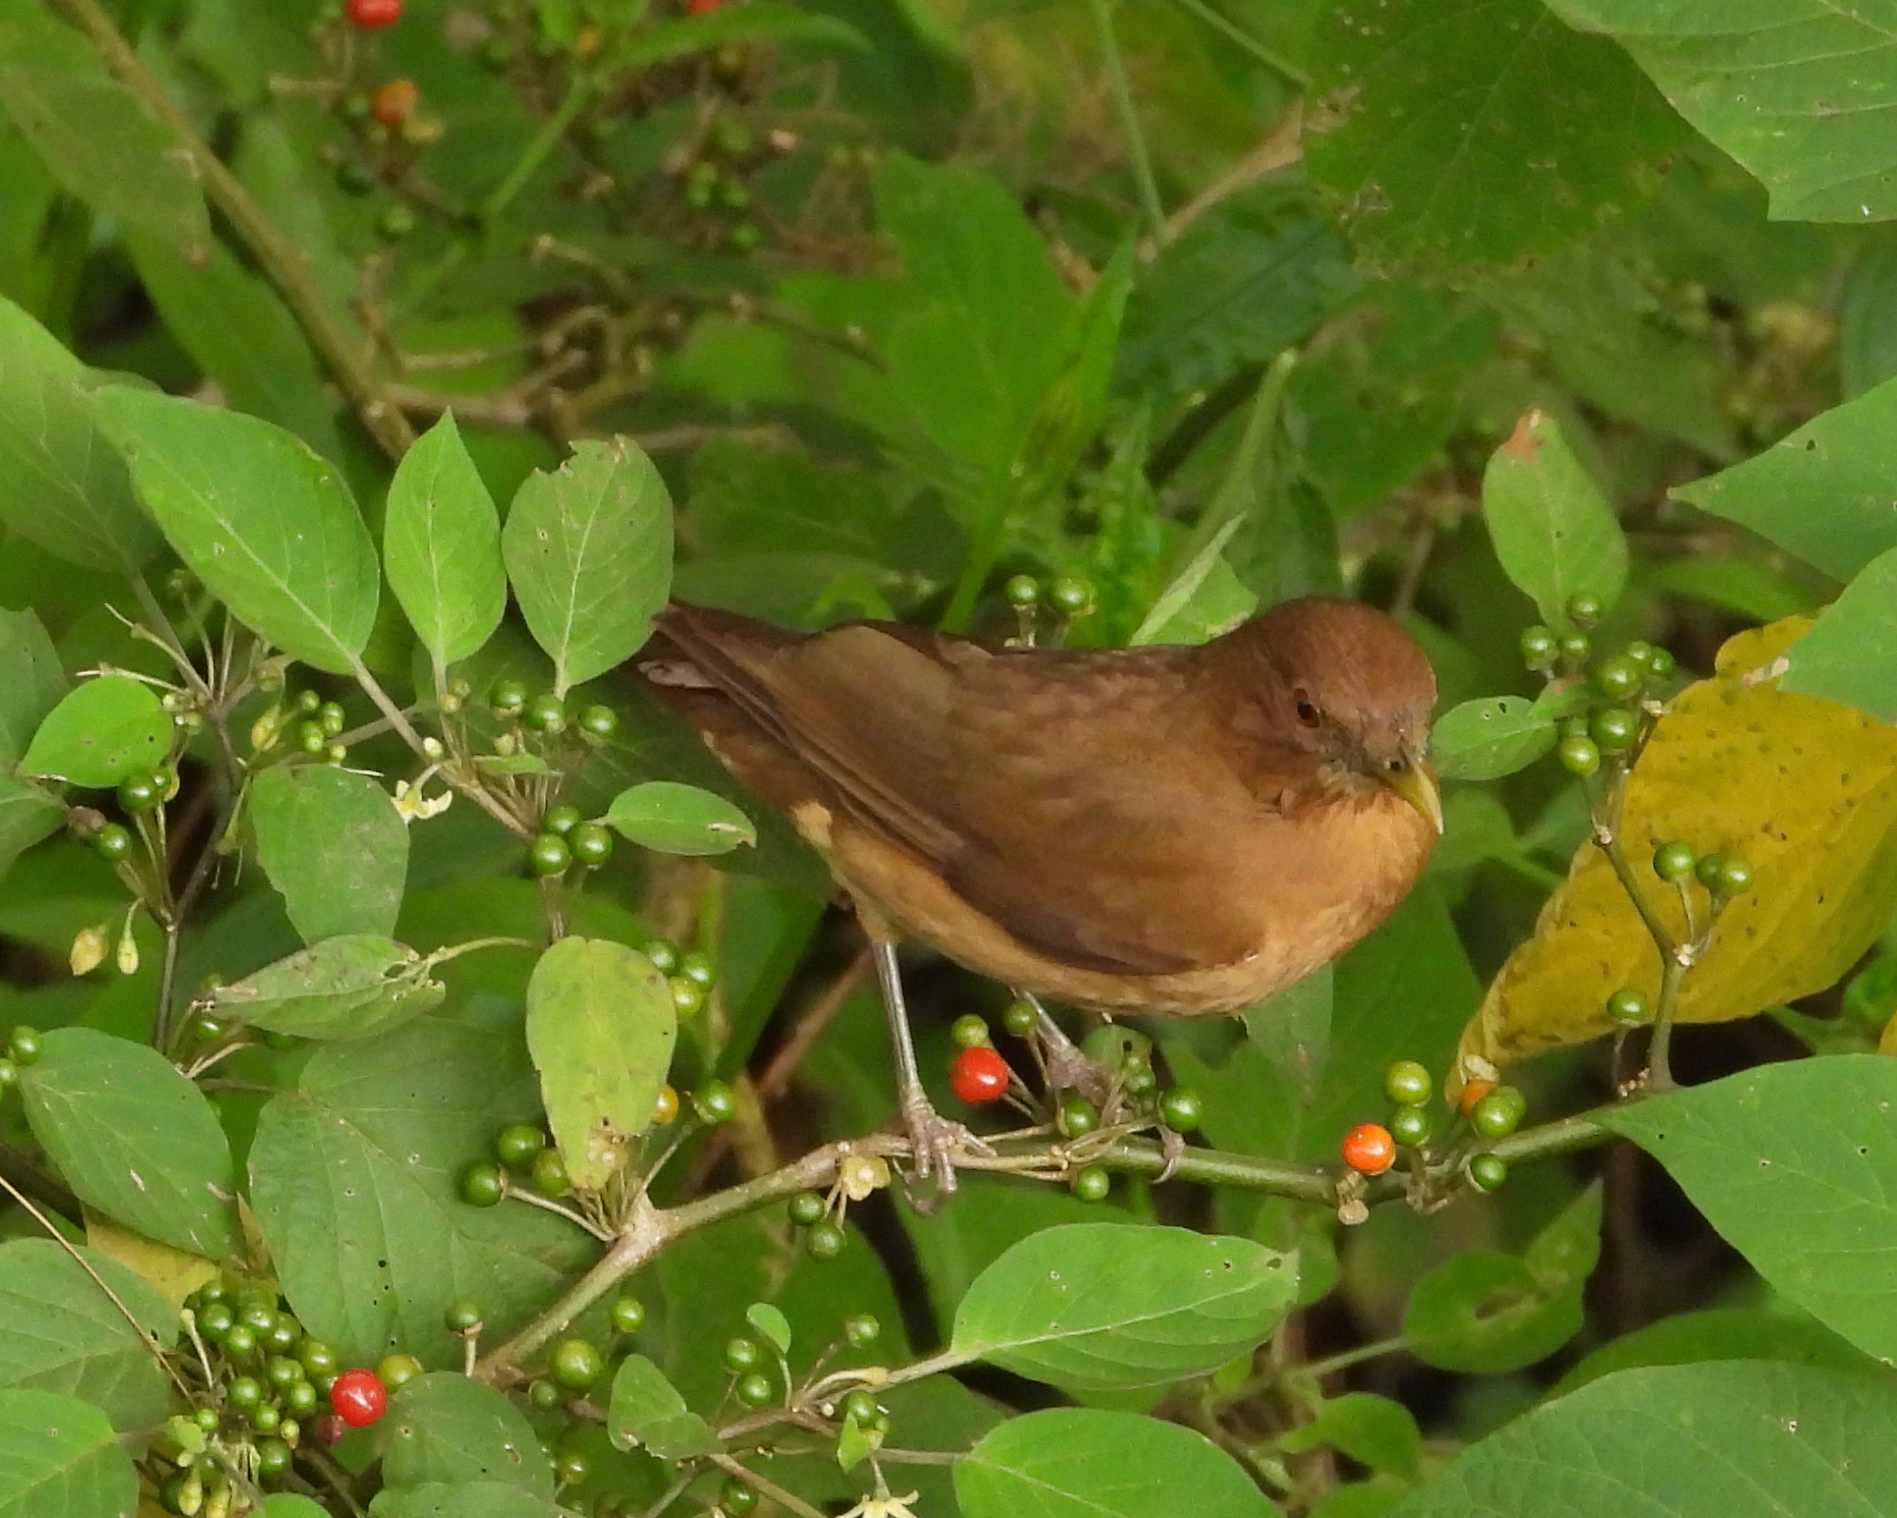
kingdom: Animalia
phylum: Chordata
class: Aves
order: Passeriformes
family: Turdidae
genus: Turdus
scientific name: Turdus grayi
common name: Clay-colored thrush
